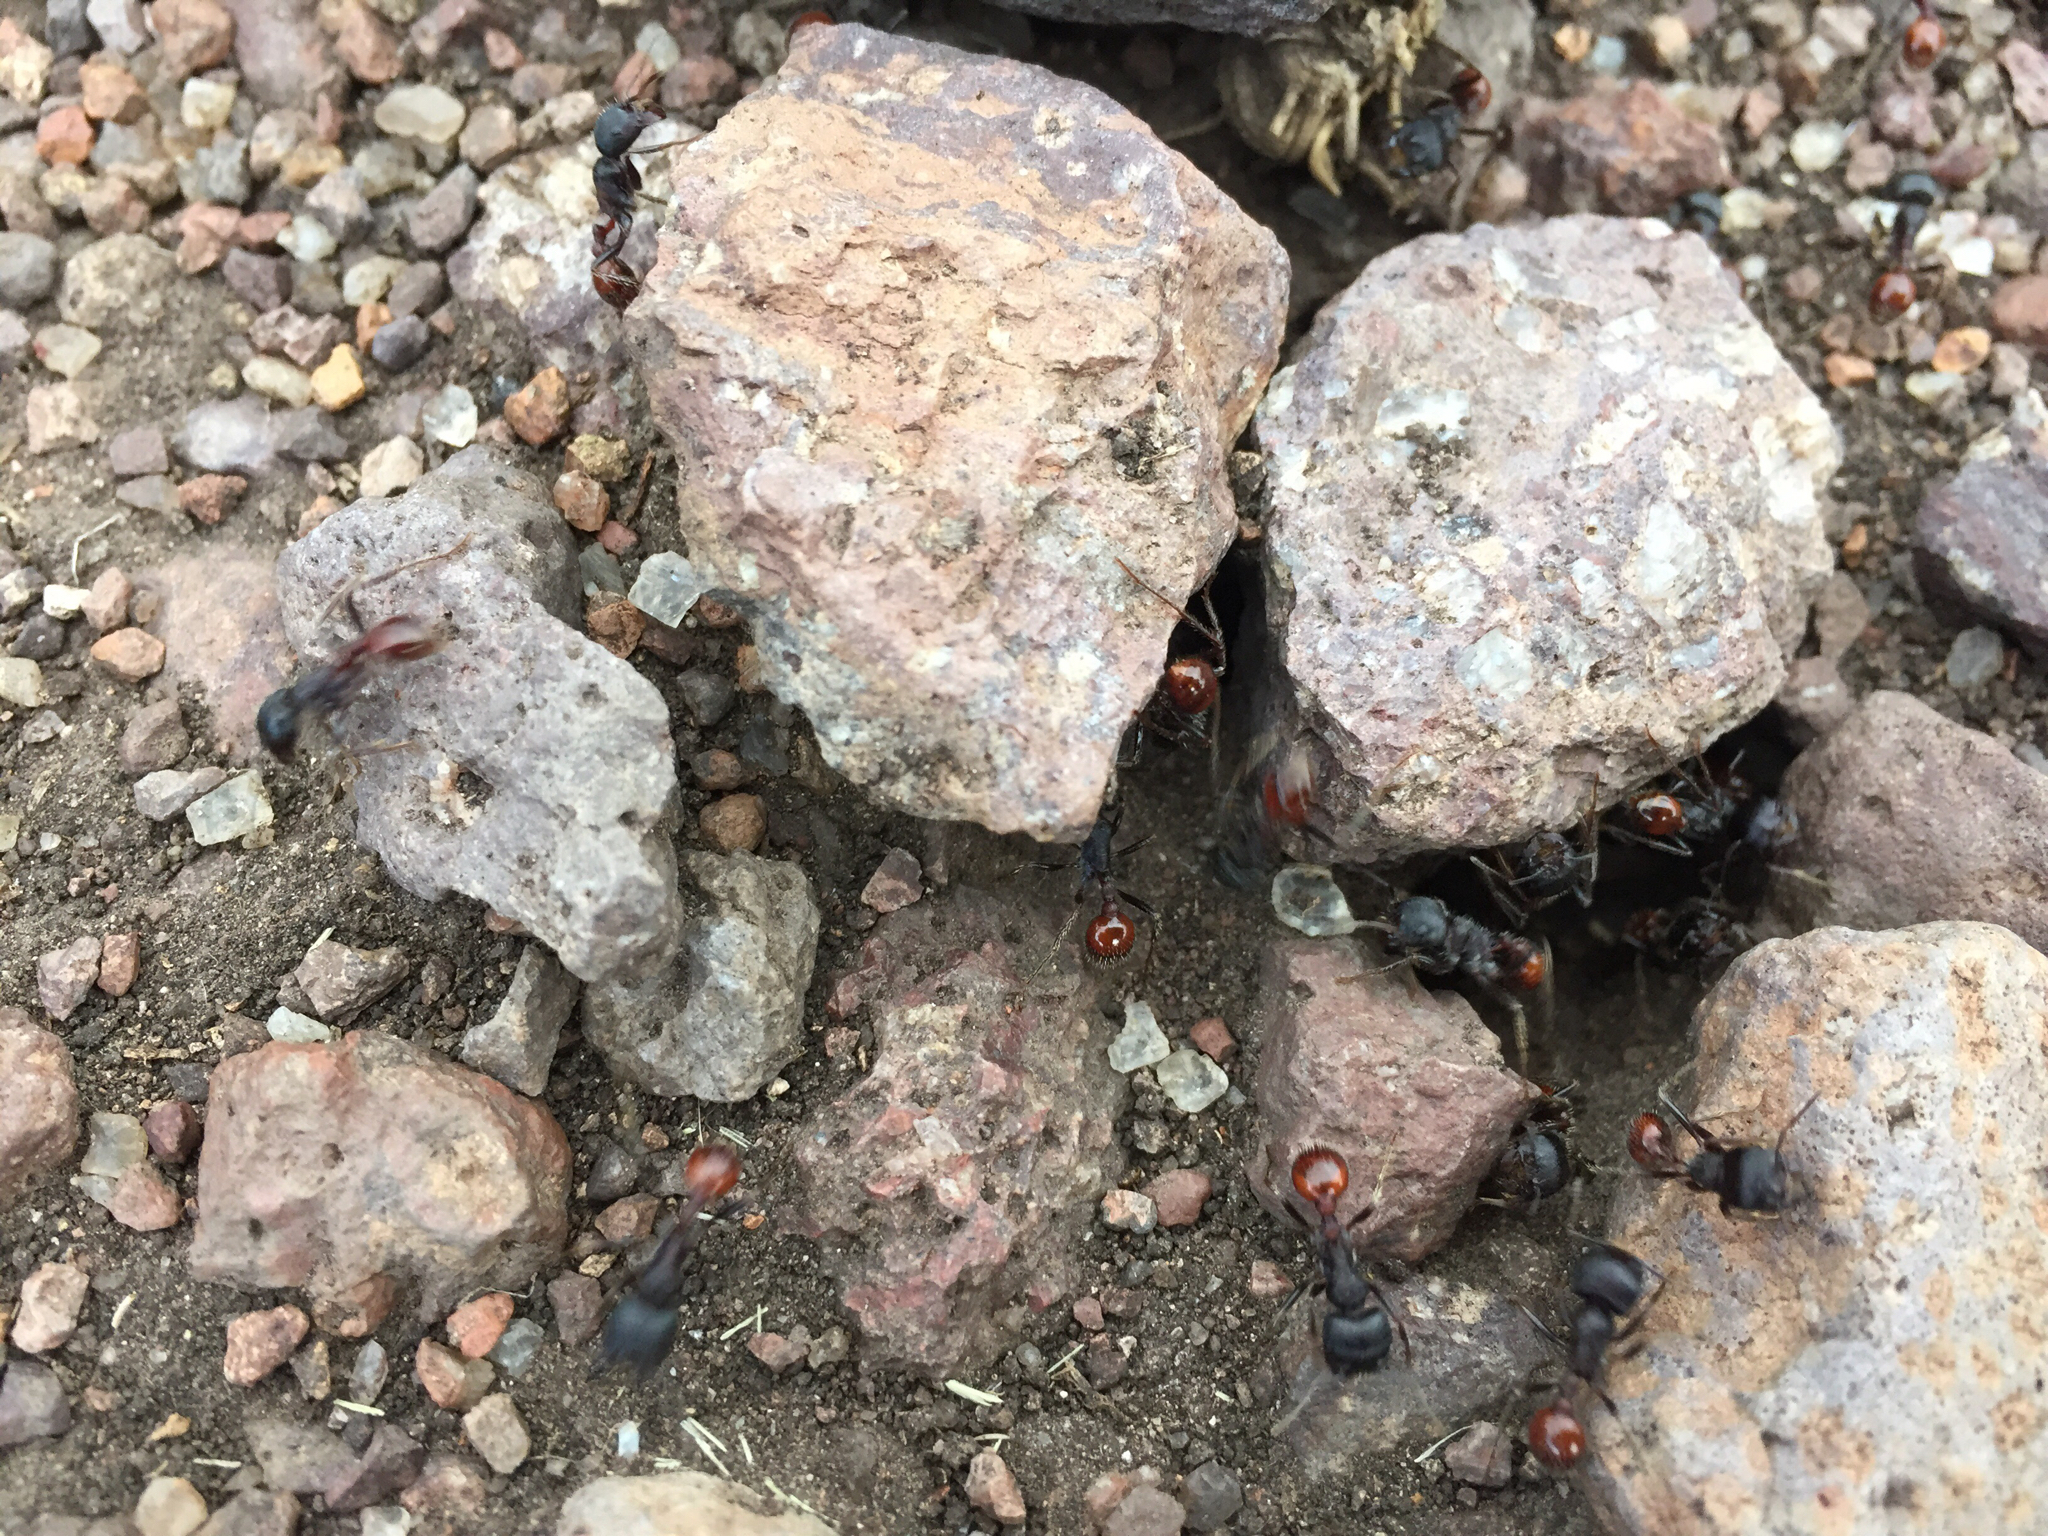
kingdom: Animalia
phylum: Arthropoda
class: Insecta
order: Hymenoptera
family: Formicidae
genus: Pogonomyrmex
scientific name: Pogonomyrmex rugosus
